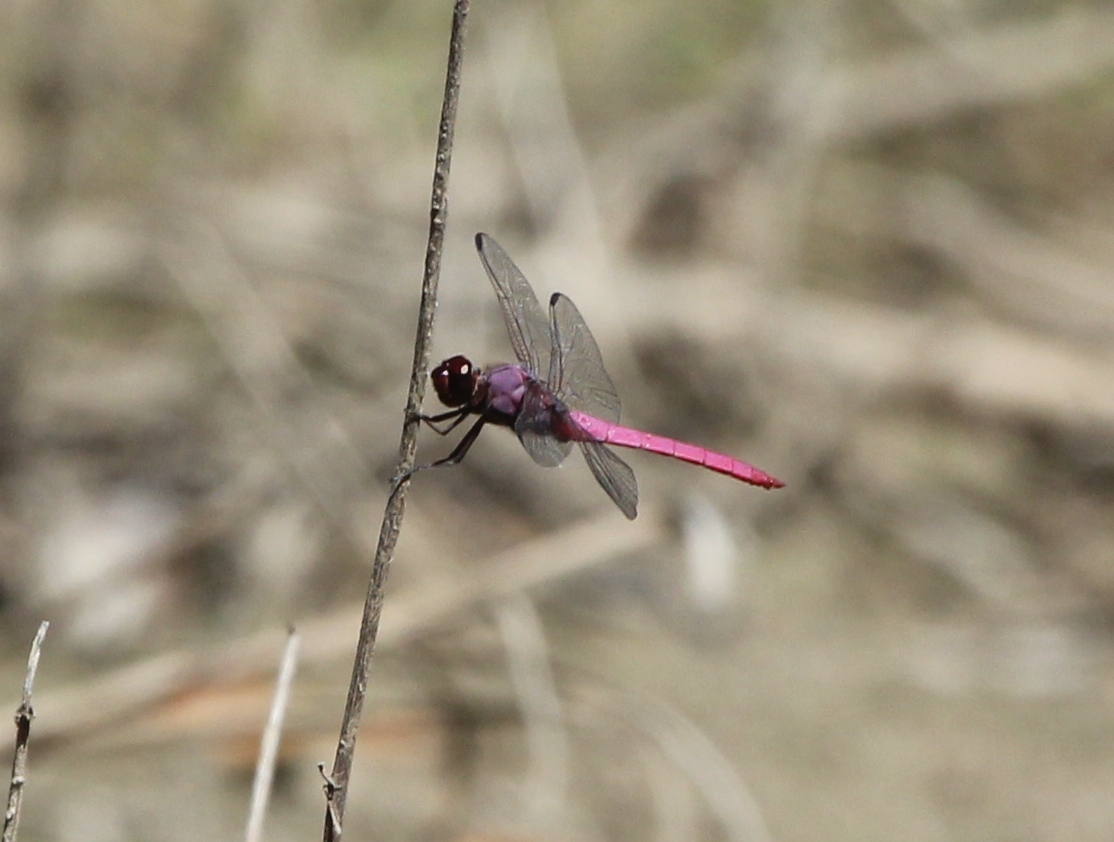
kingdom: Animalia
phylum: Arthropoda
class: Insecta
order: Odonata
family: Libellulidae
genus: Orthemis
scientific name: Orthemis ferruginea
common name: Roseate skimmer
